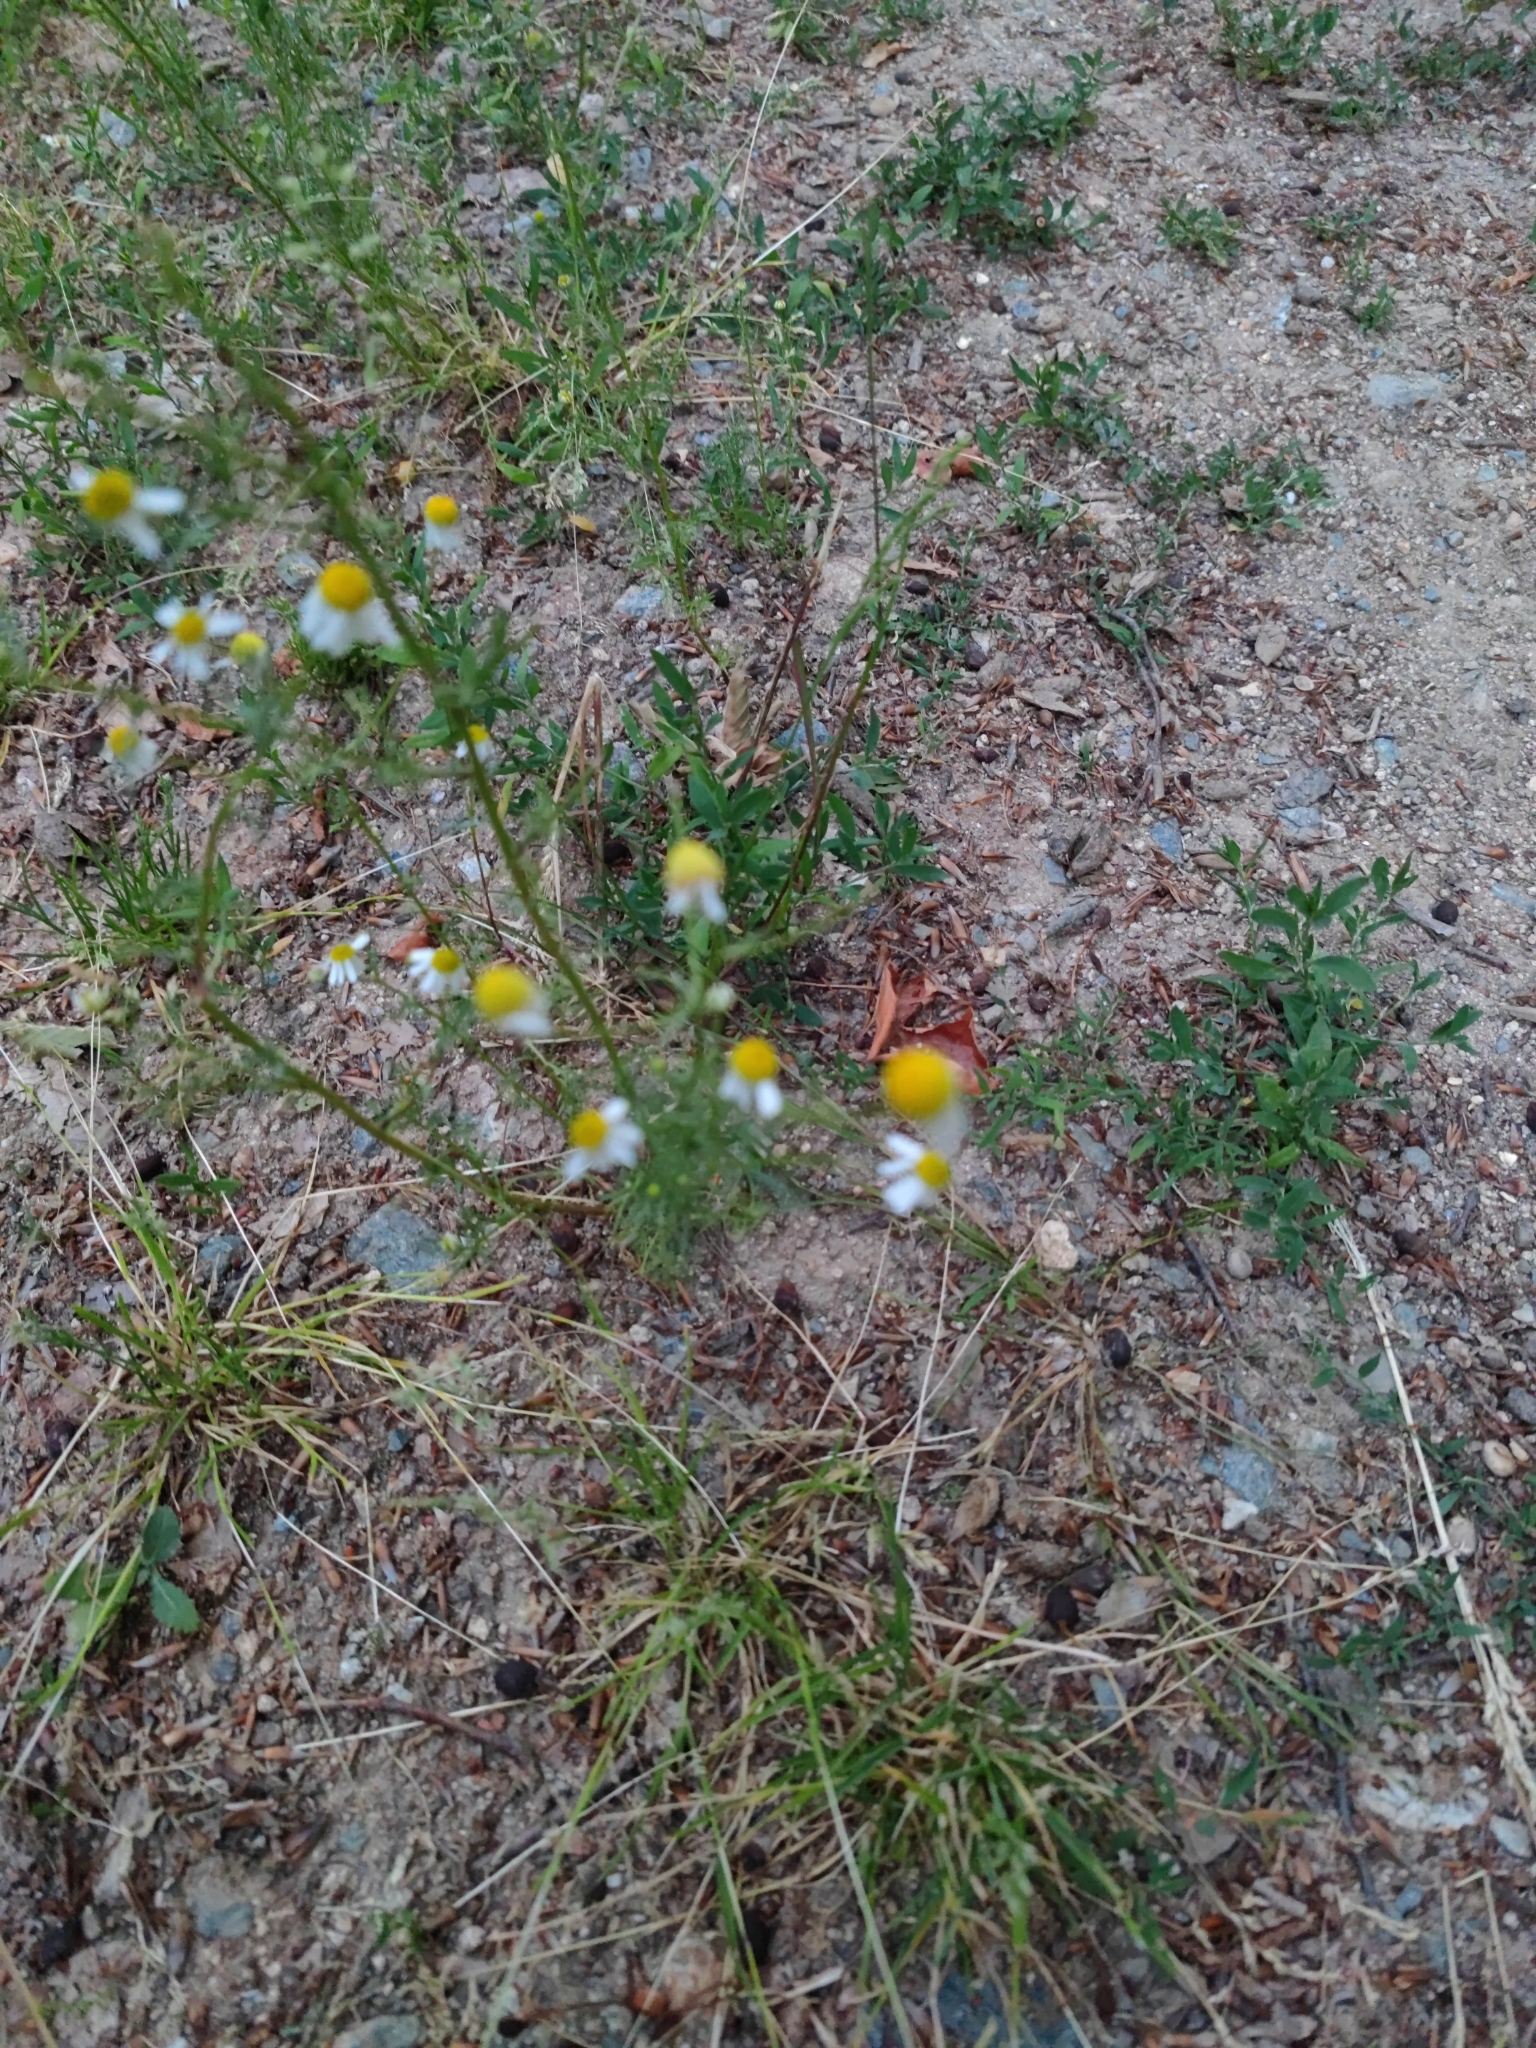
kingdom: Plantae
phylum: Tracheophyta
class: Magnoliopsida
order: Asterales
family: Asteraceae
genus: Matricaria
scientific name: Matricaria chamomilla
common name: Scented mayweed
